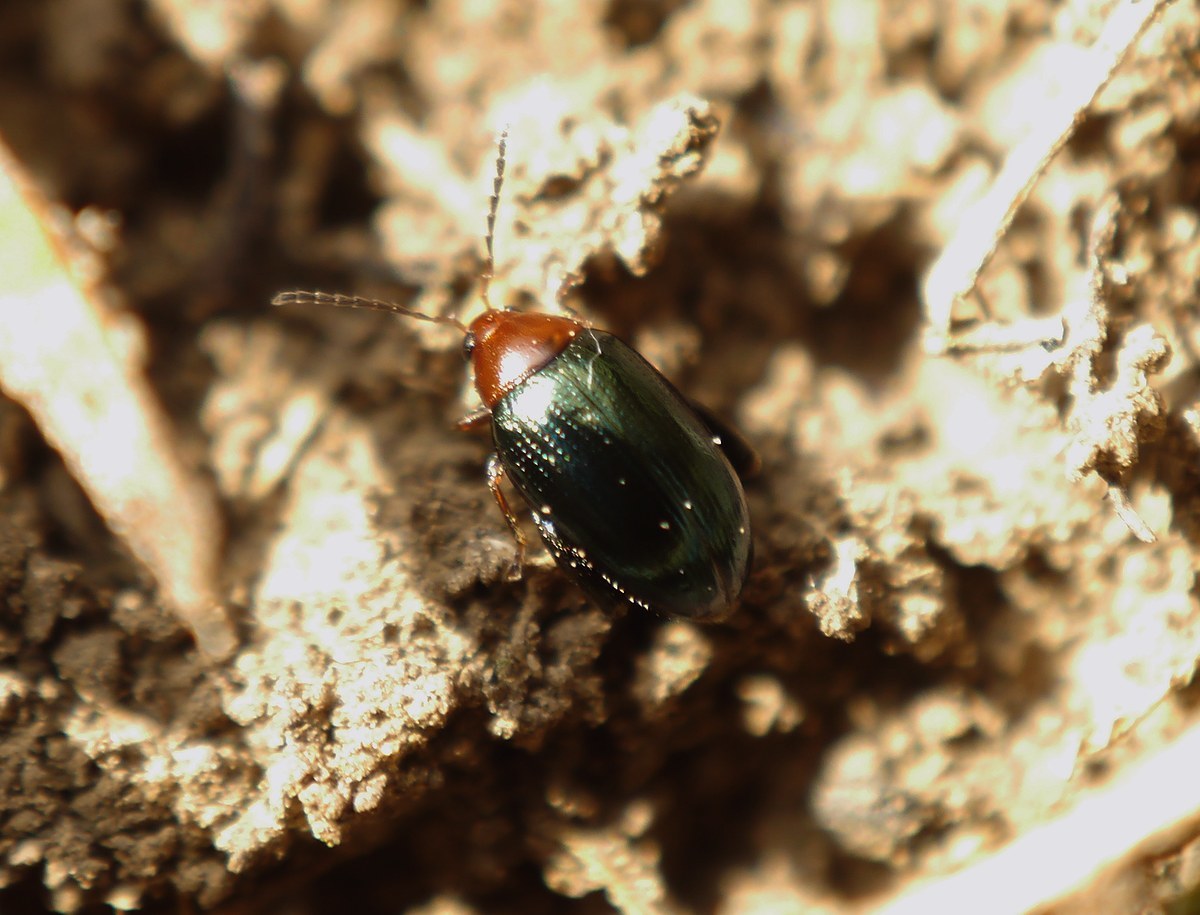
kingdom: Animalia
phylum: Arthropoda
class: Insecta
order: Coleoptera
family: Chrysomelidae
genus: Psylliodes
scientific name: Psylliodes tricolor
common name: Flixweed leaf beetle
